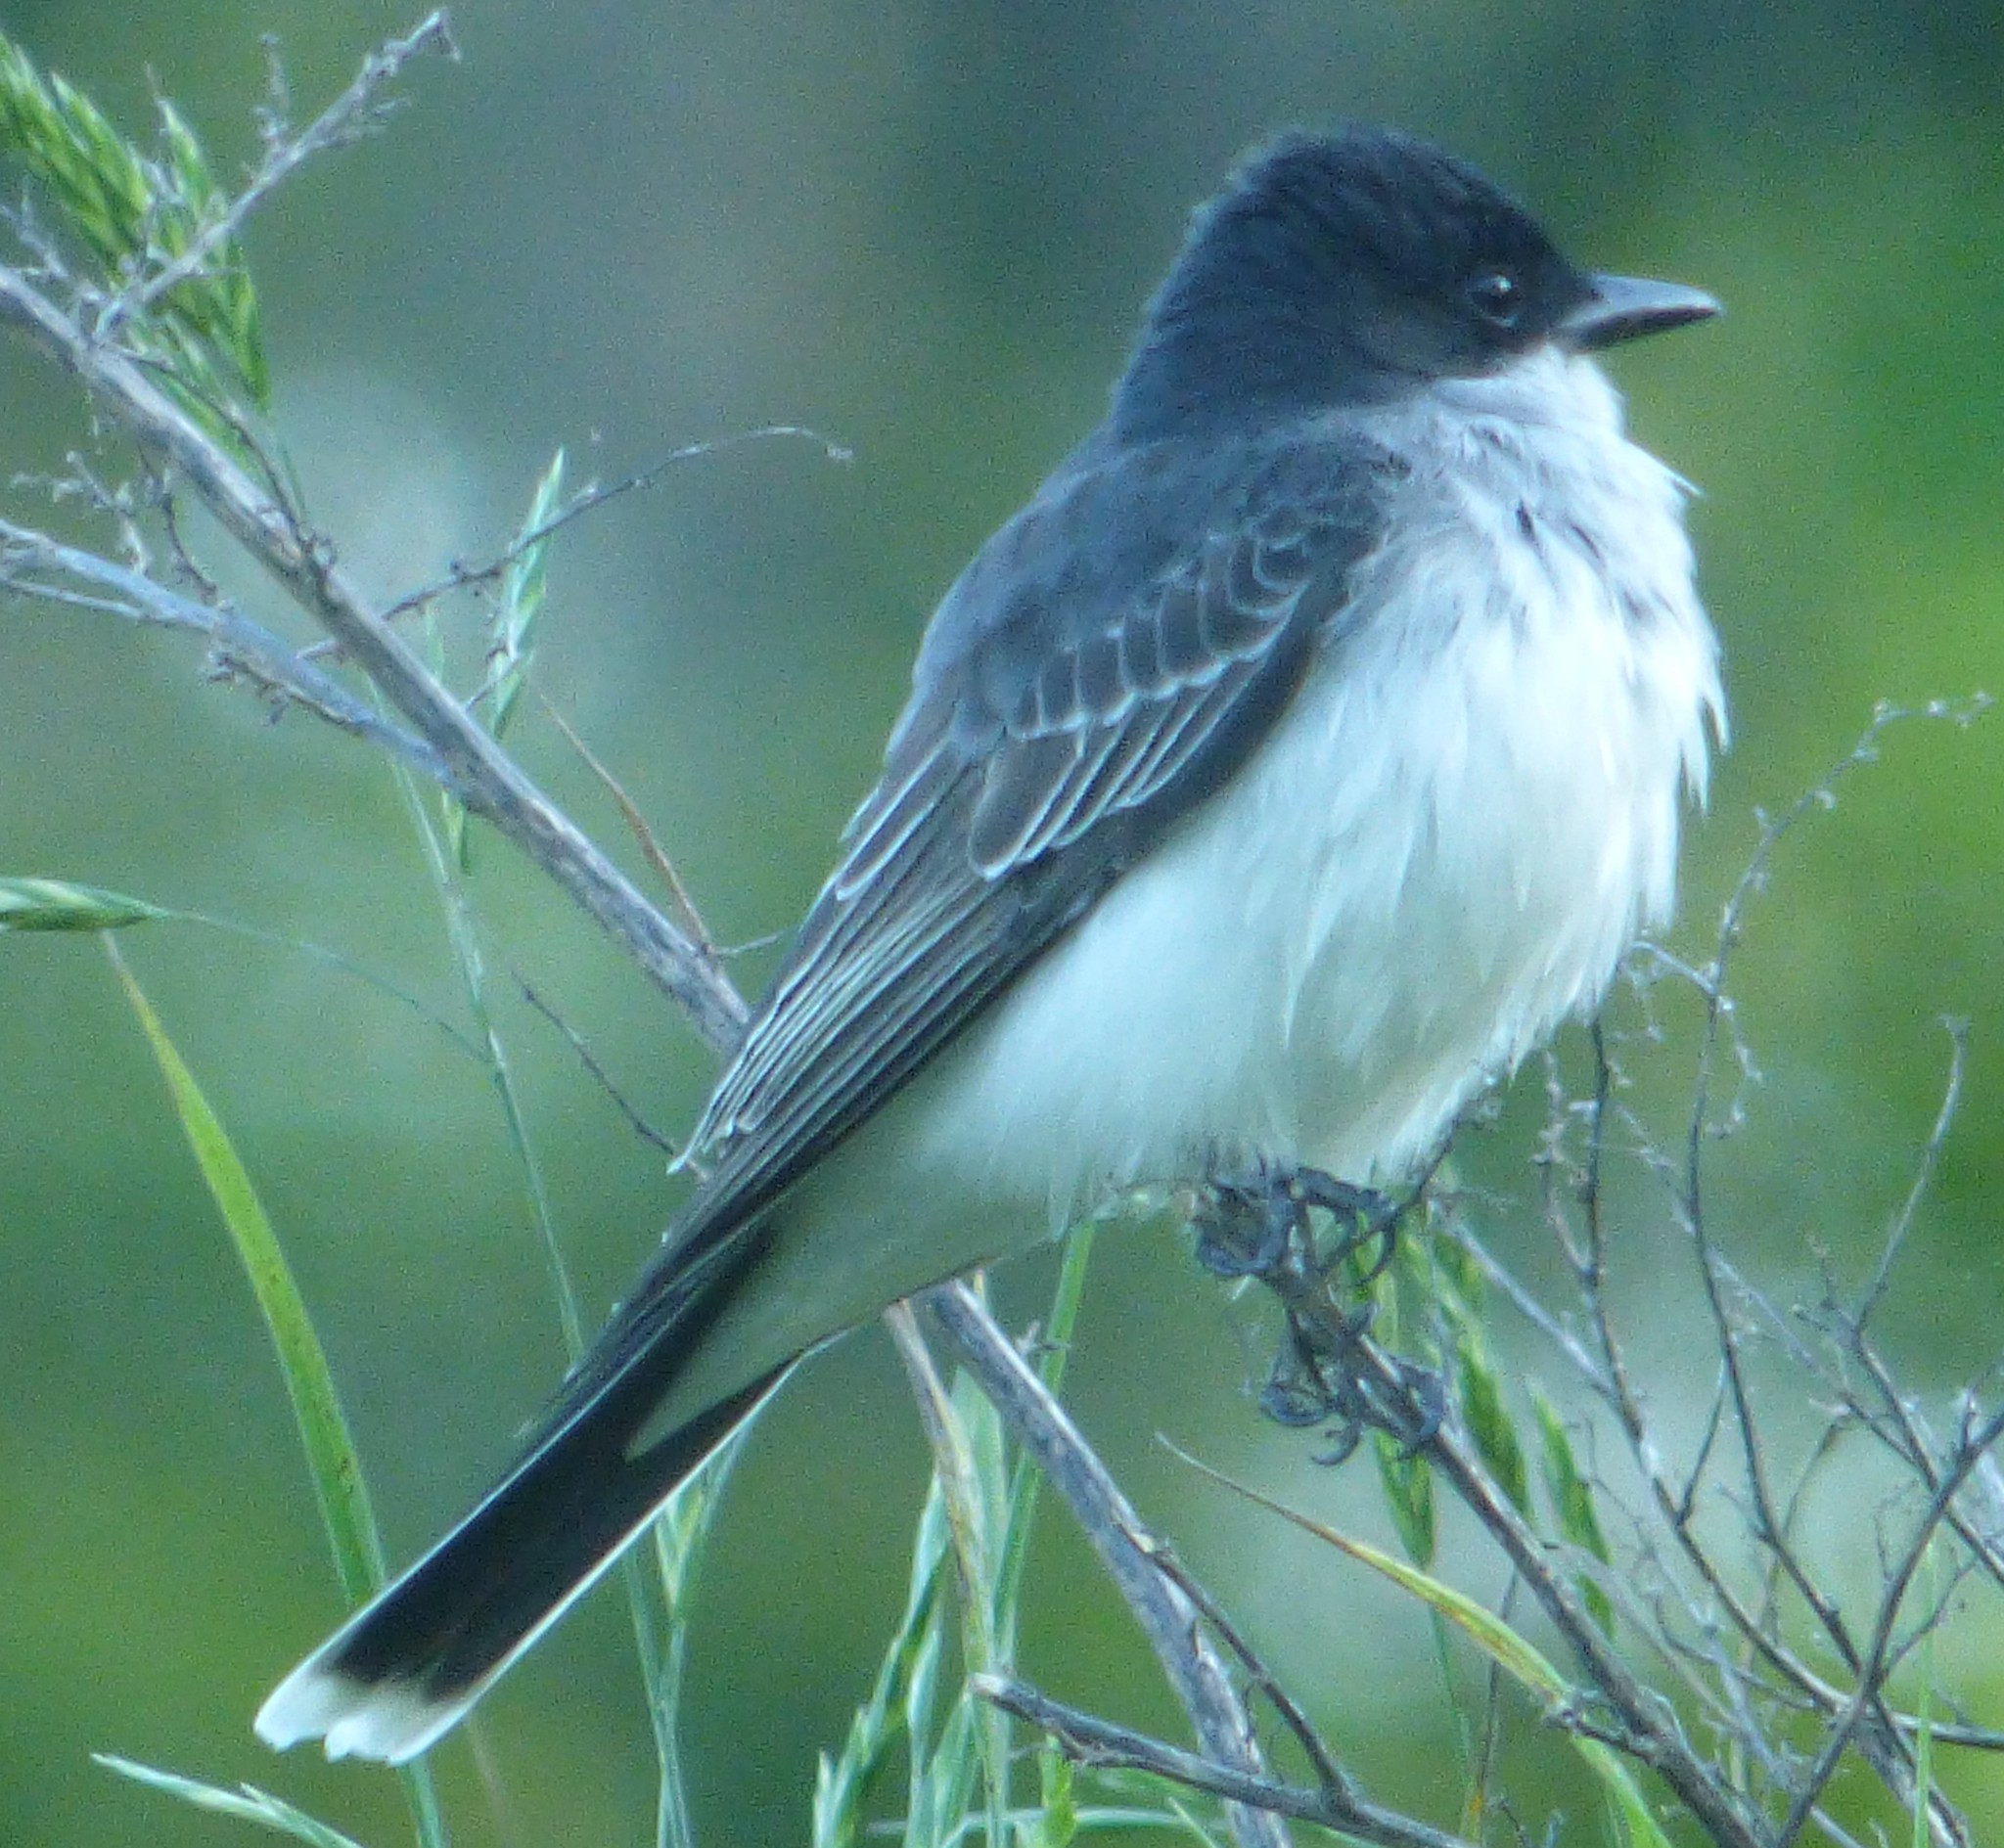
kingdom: Animalia
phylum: Chordata
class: Aves
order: Passeriformes
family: Tyrannidae
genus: Tyrannus
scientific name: Tyrannus tyrannus
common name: Eastern kingbird
